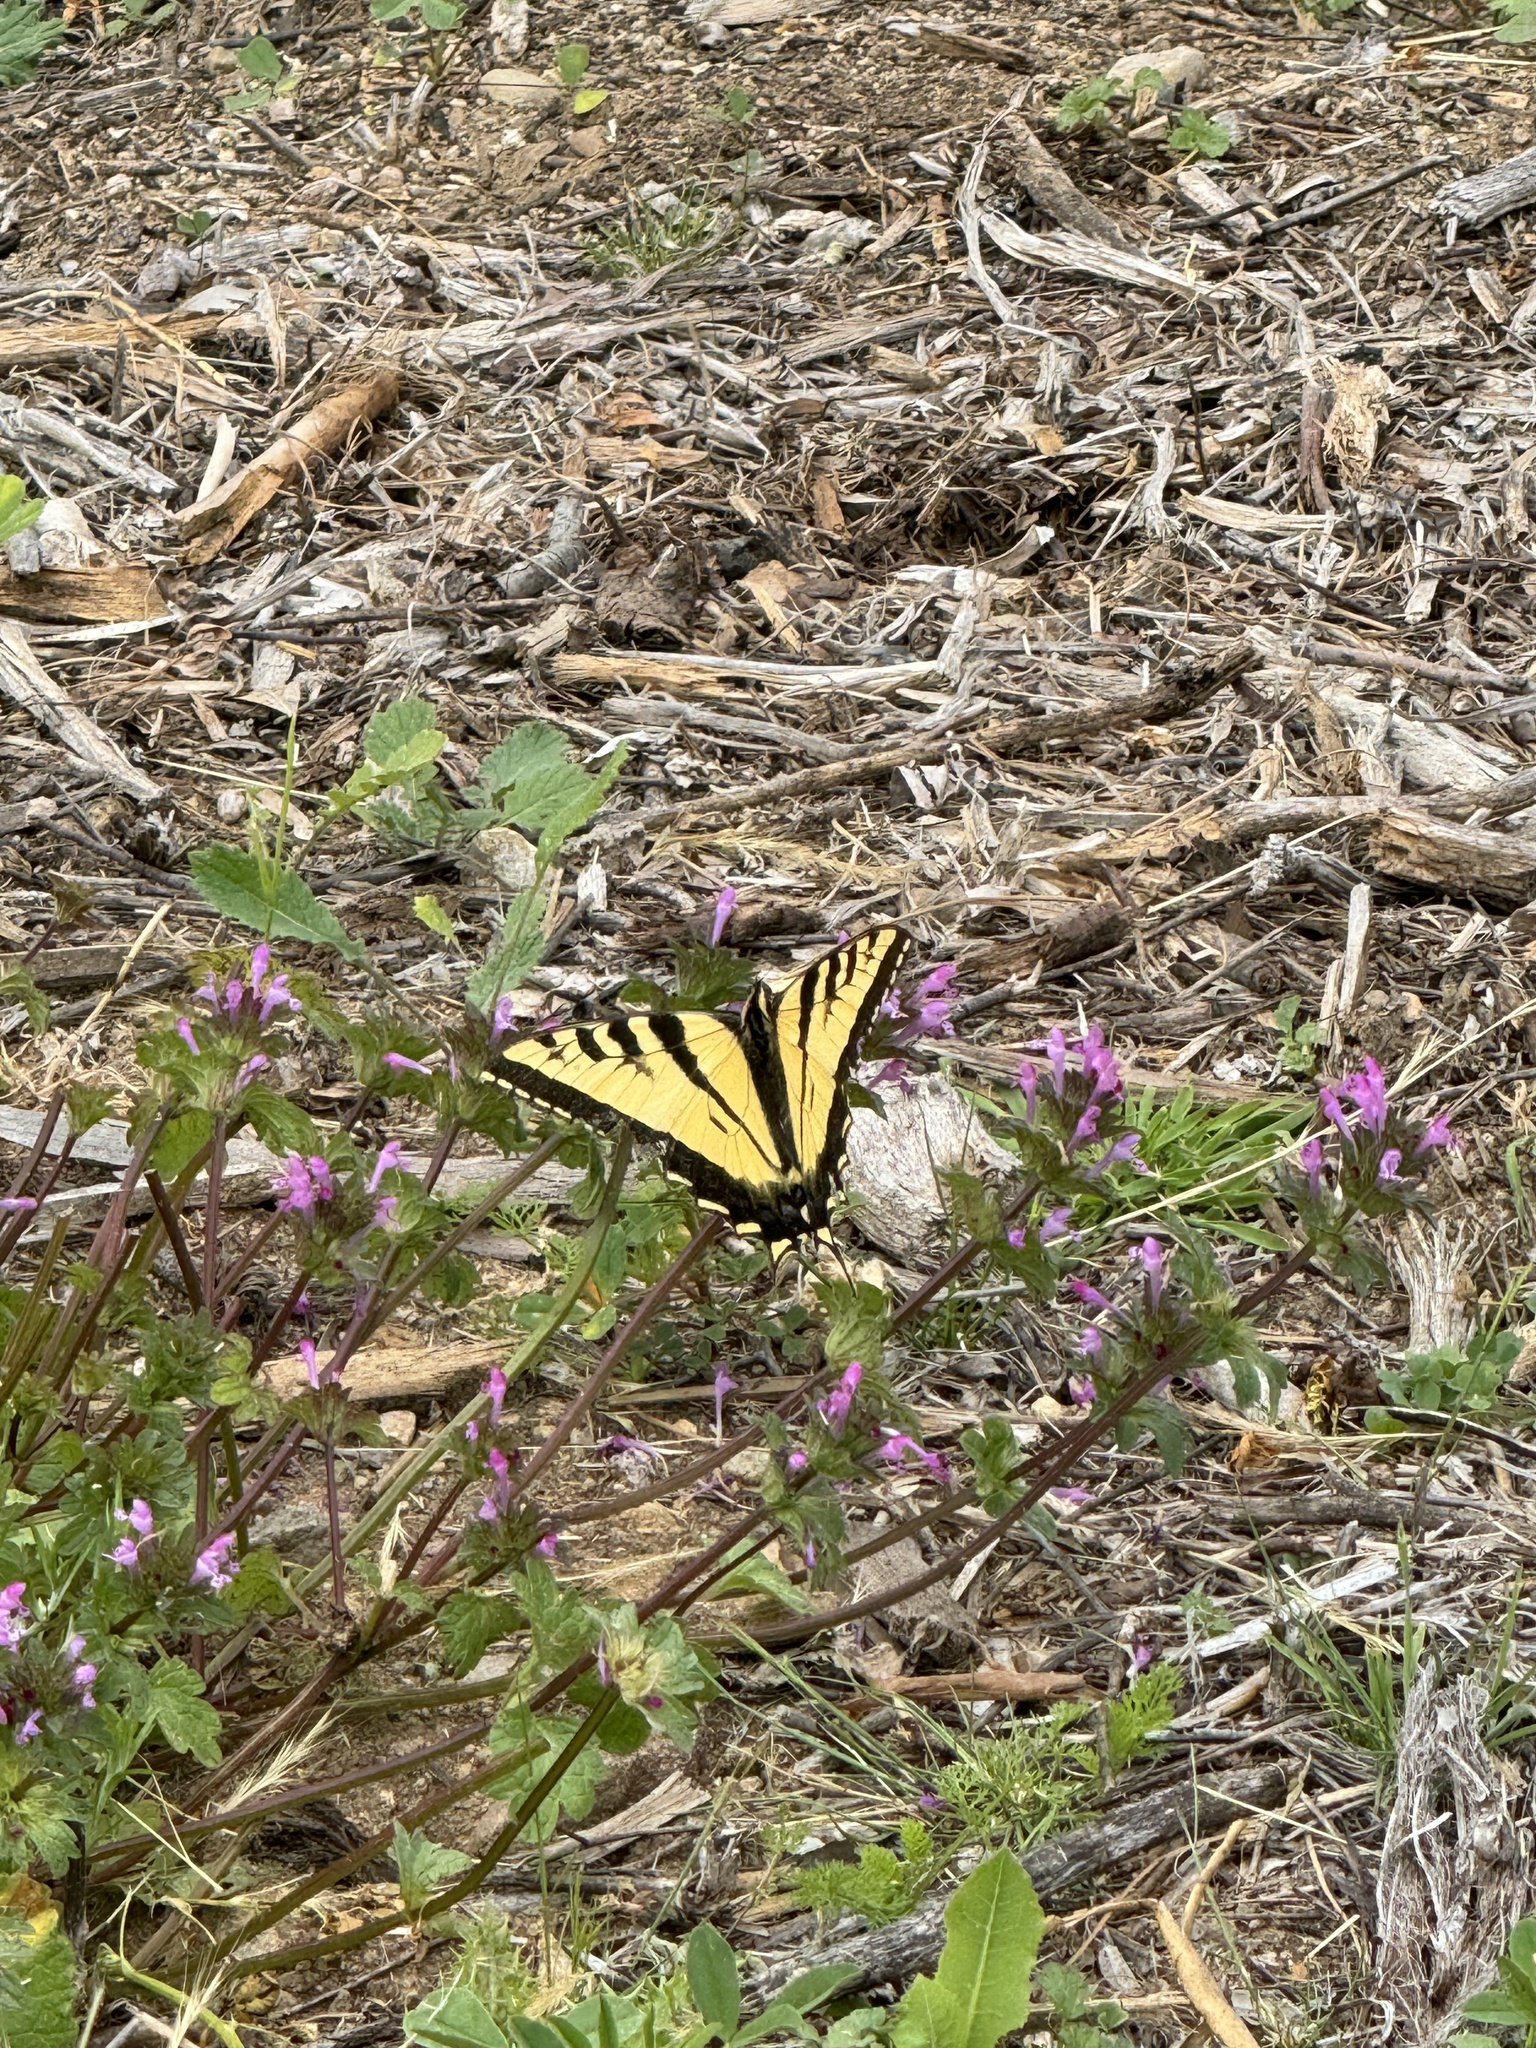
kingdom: Animalia
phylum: Arthropoda
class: Insecta
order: Lepidoptera
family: Papilionidae
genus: Papilio
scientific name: Papilio rutulus
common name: Western tiger swallowtail
